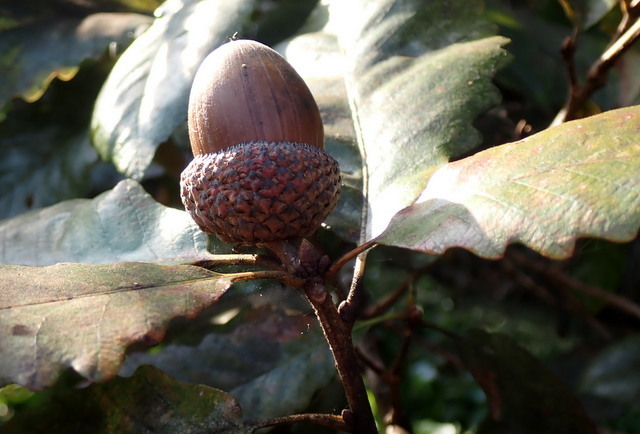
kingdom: Plantae
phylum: Tracheophyta
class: Magnoliopsida
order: Fagales
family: Fagaceae
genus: Quercus
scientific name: Quercus michauxii
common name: Swamp chestnut oak
